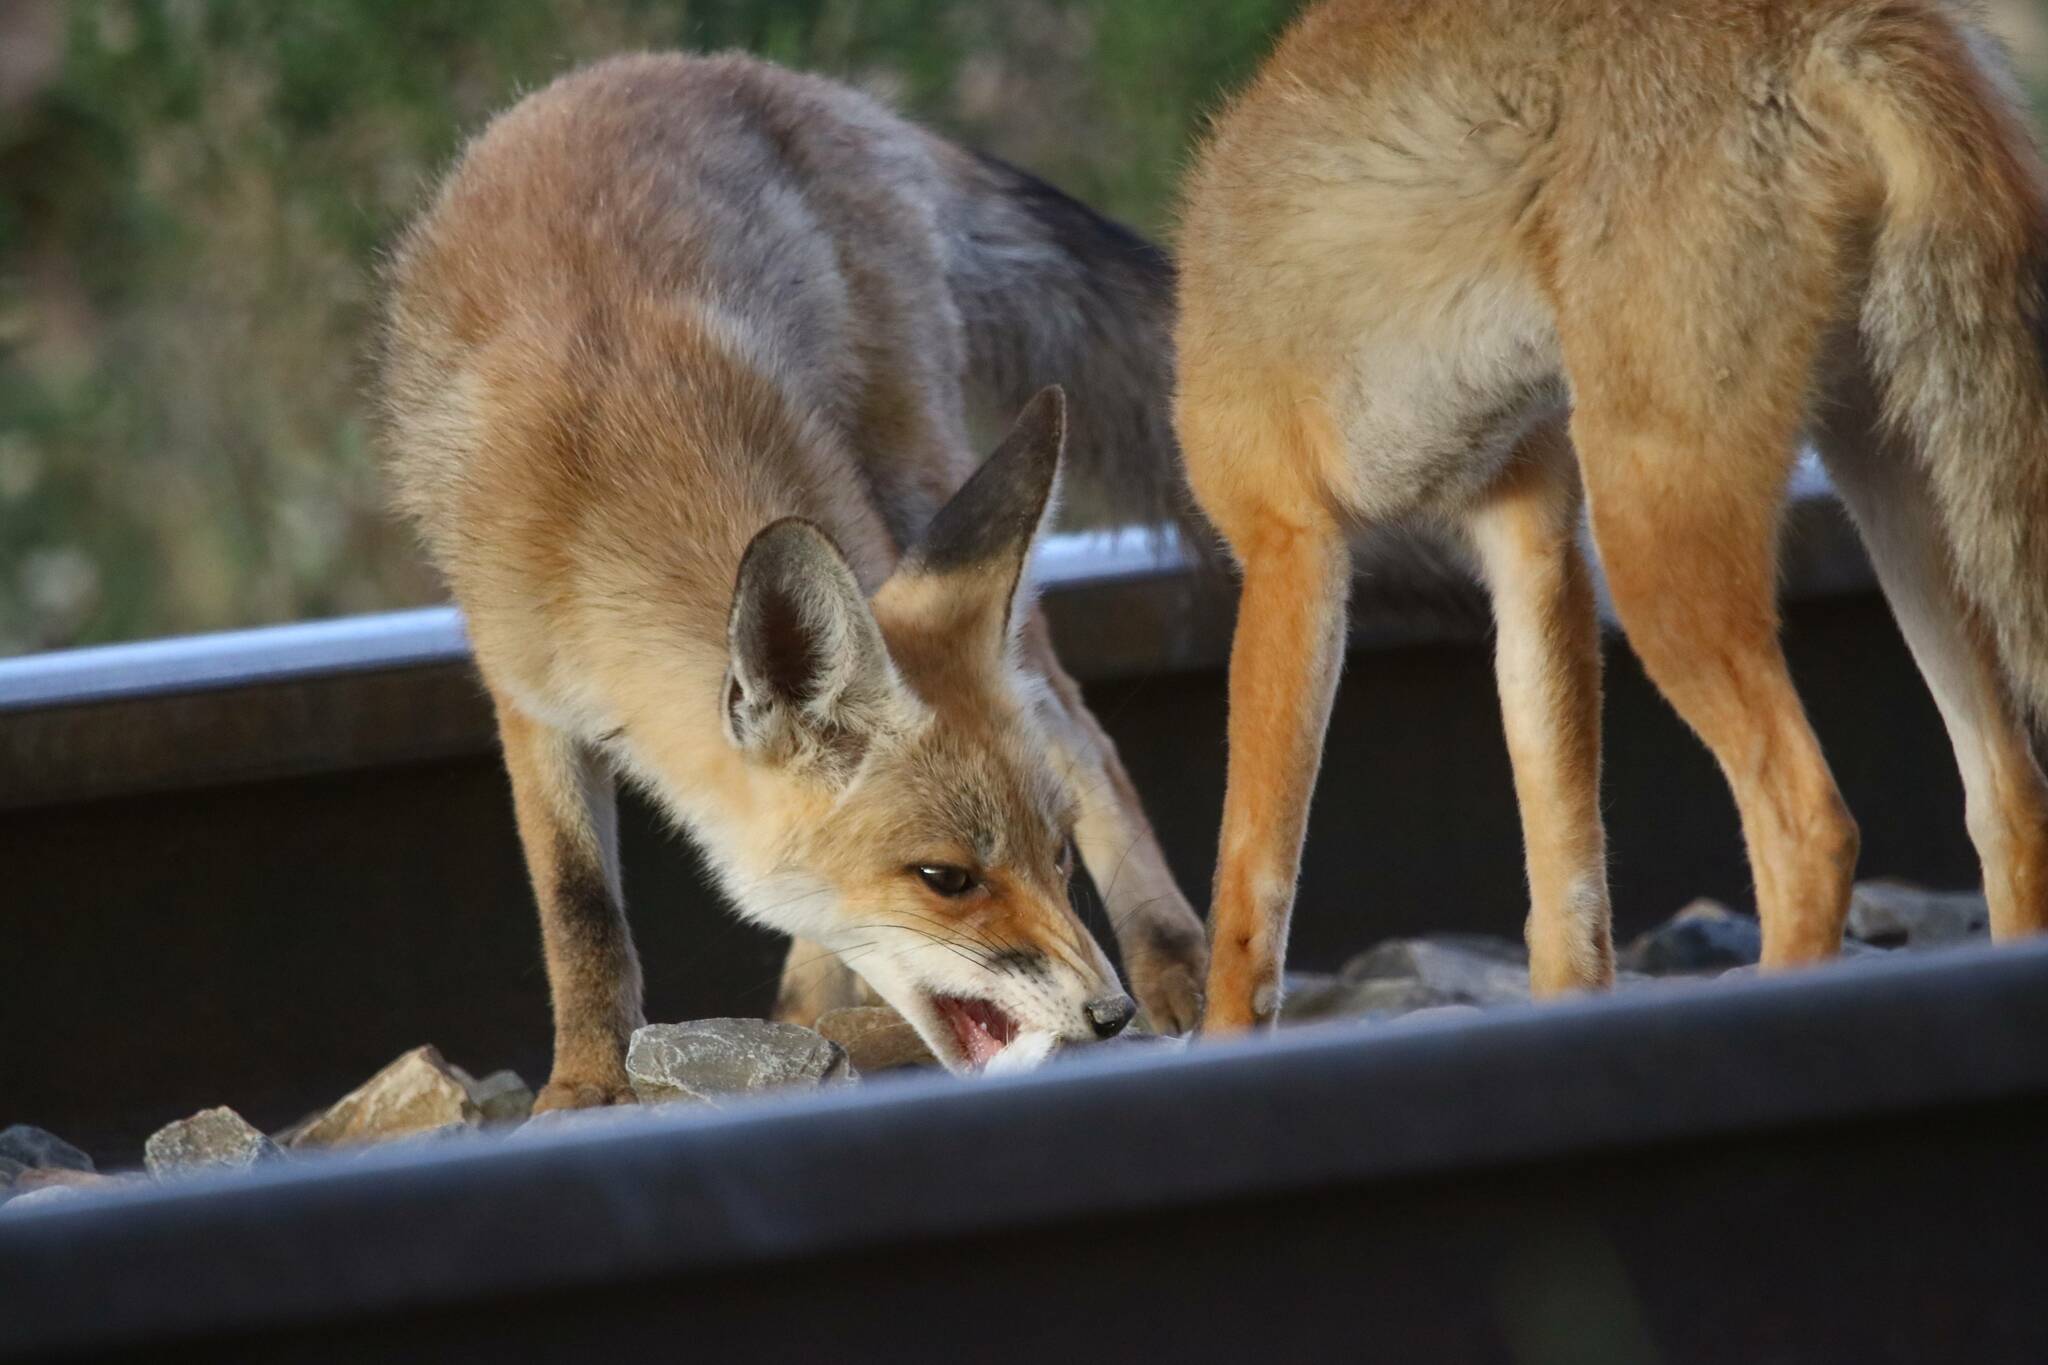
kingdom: Animalia
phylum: Chordata
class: Mammalia
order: Carnivora
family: Canidae
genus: Vulpes
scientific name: Vulpes vulpes
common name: Red fox
